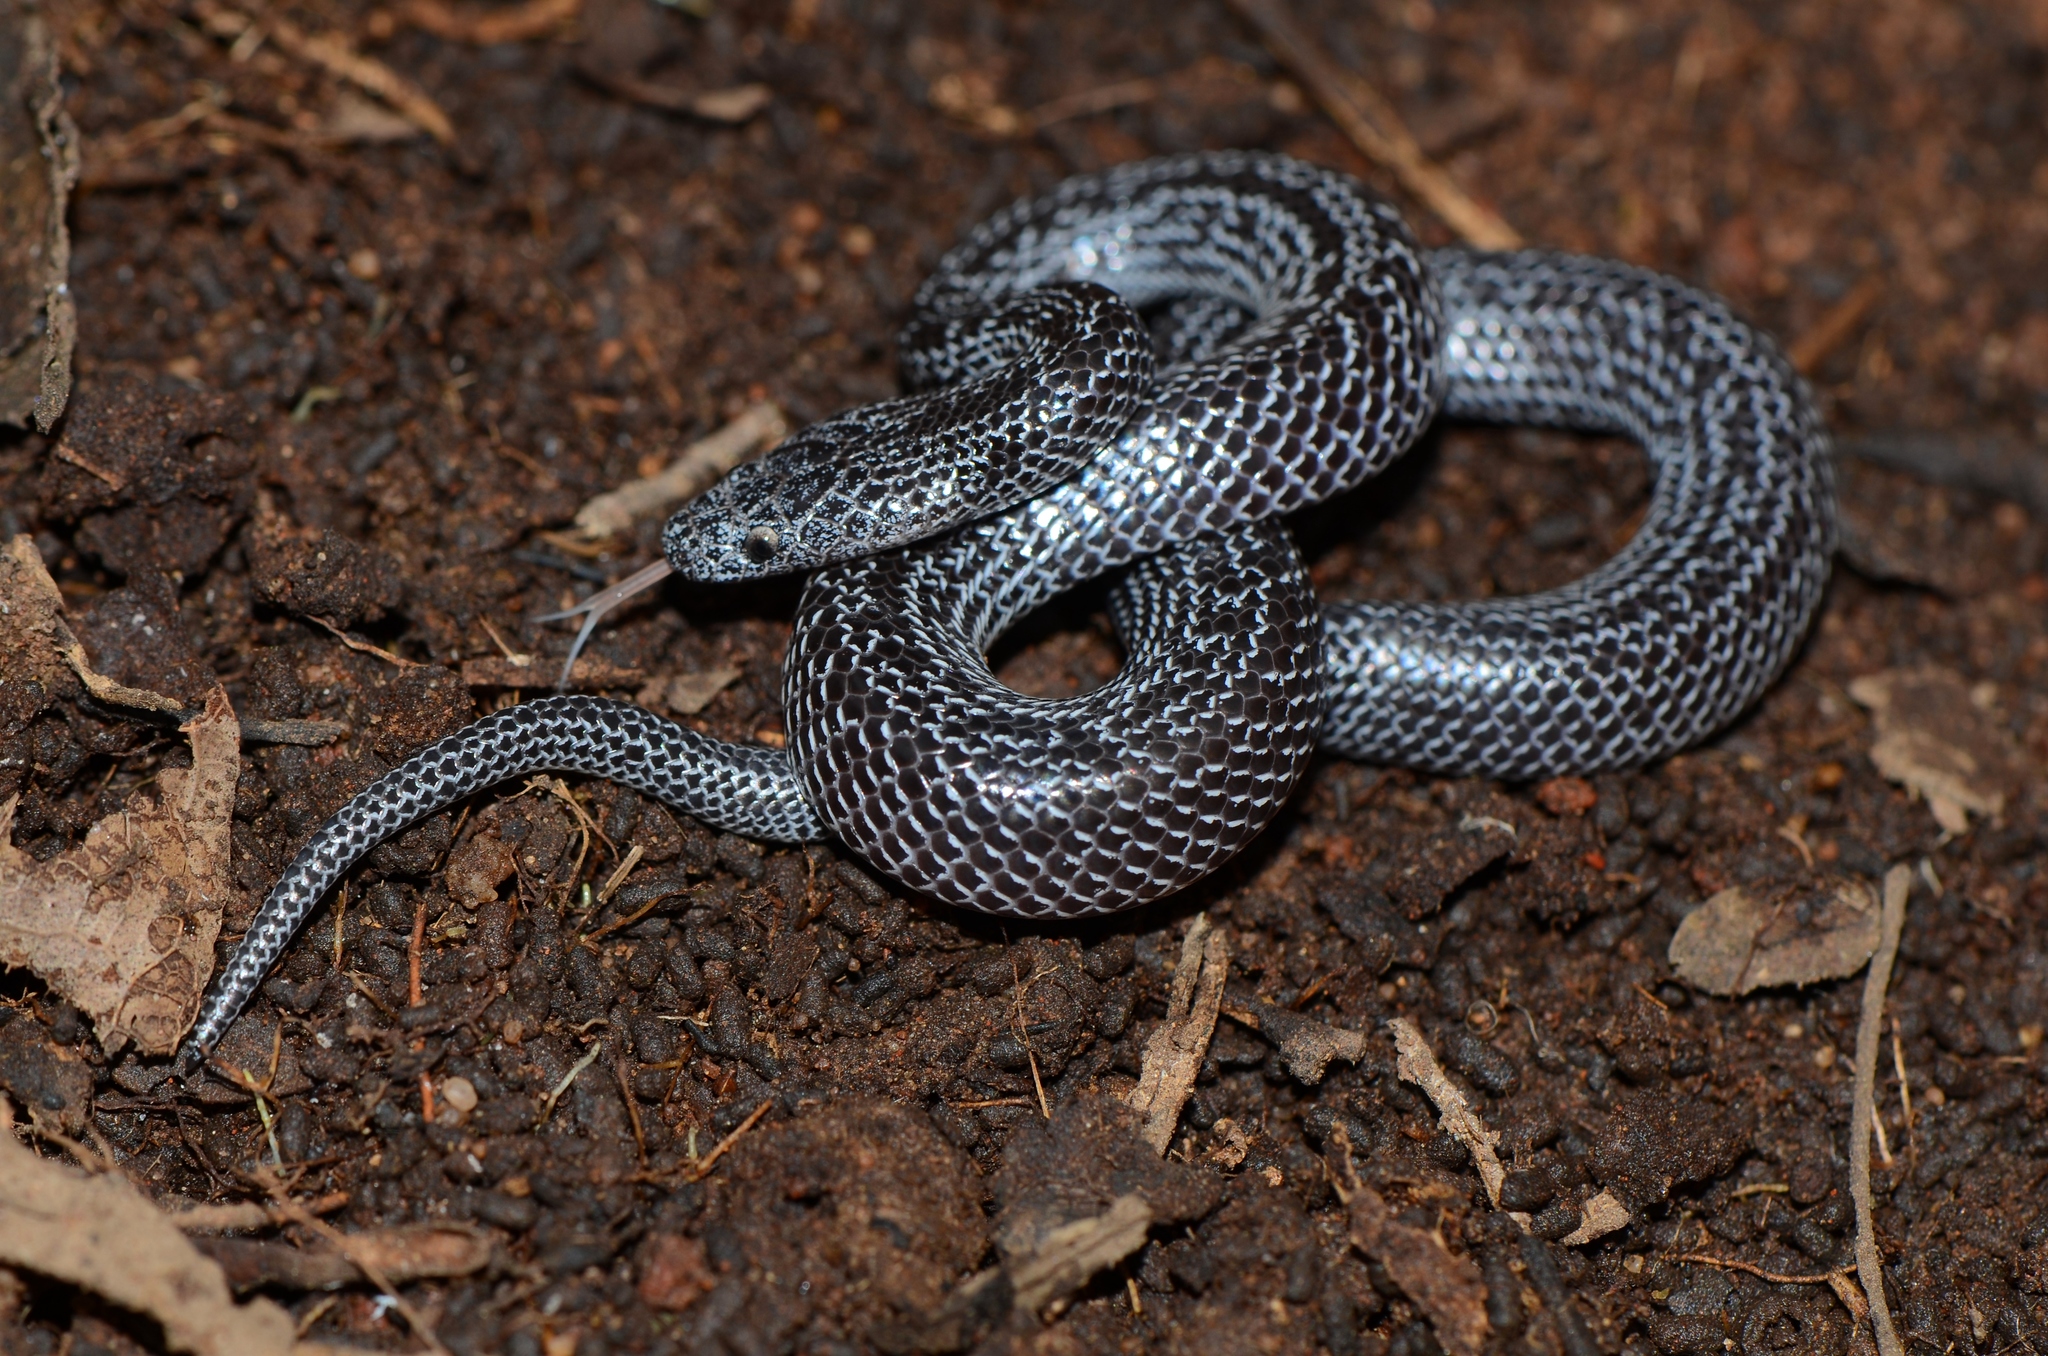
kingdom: Animalia
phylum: Chordata
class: Squamata
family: Lamprophiidae
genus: Lycophidion
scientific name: Lycophidion variegatum
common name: Variegated wolf snake
